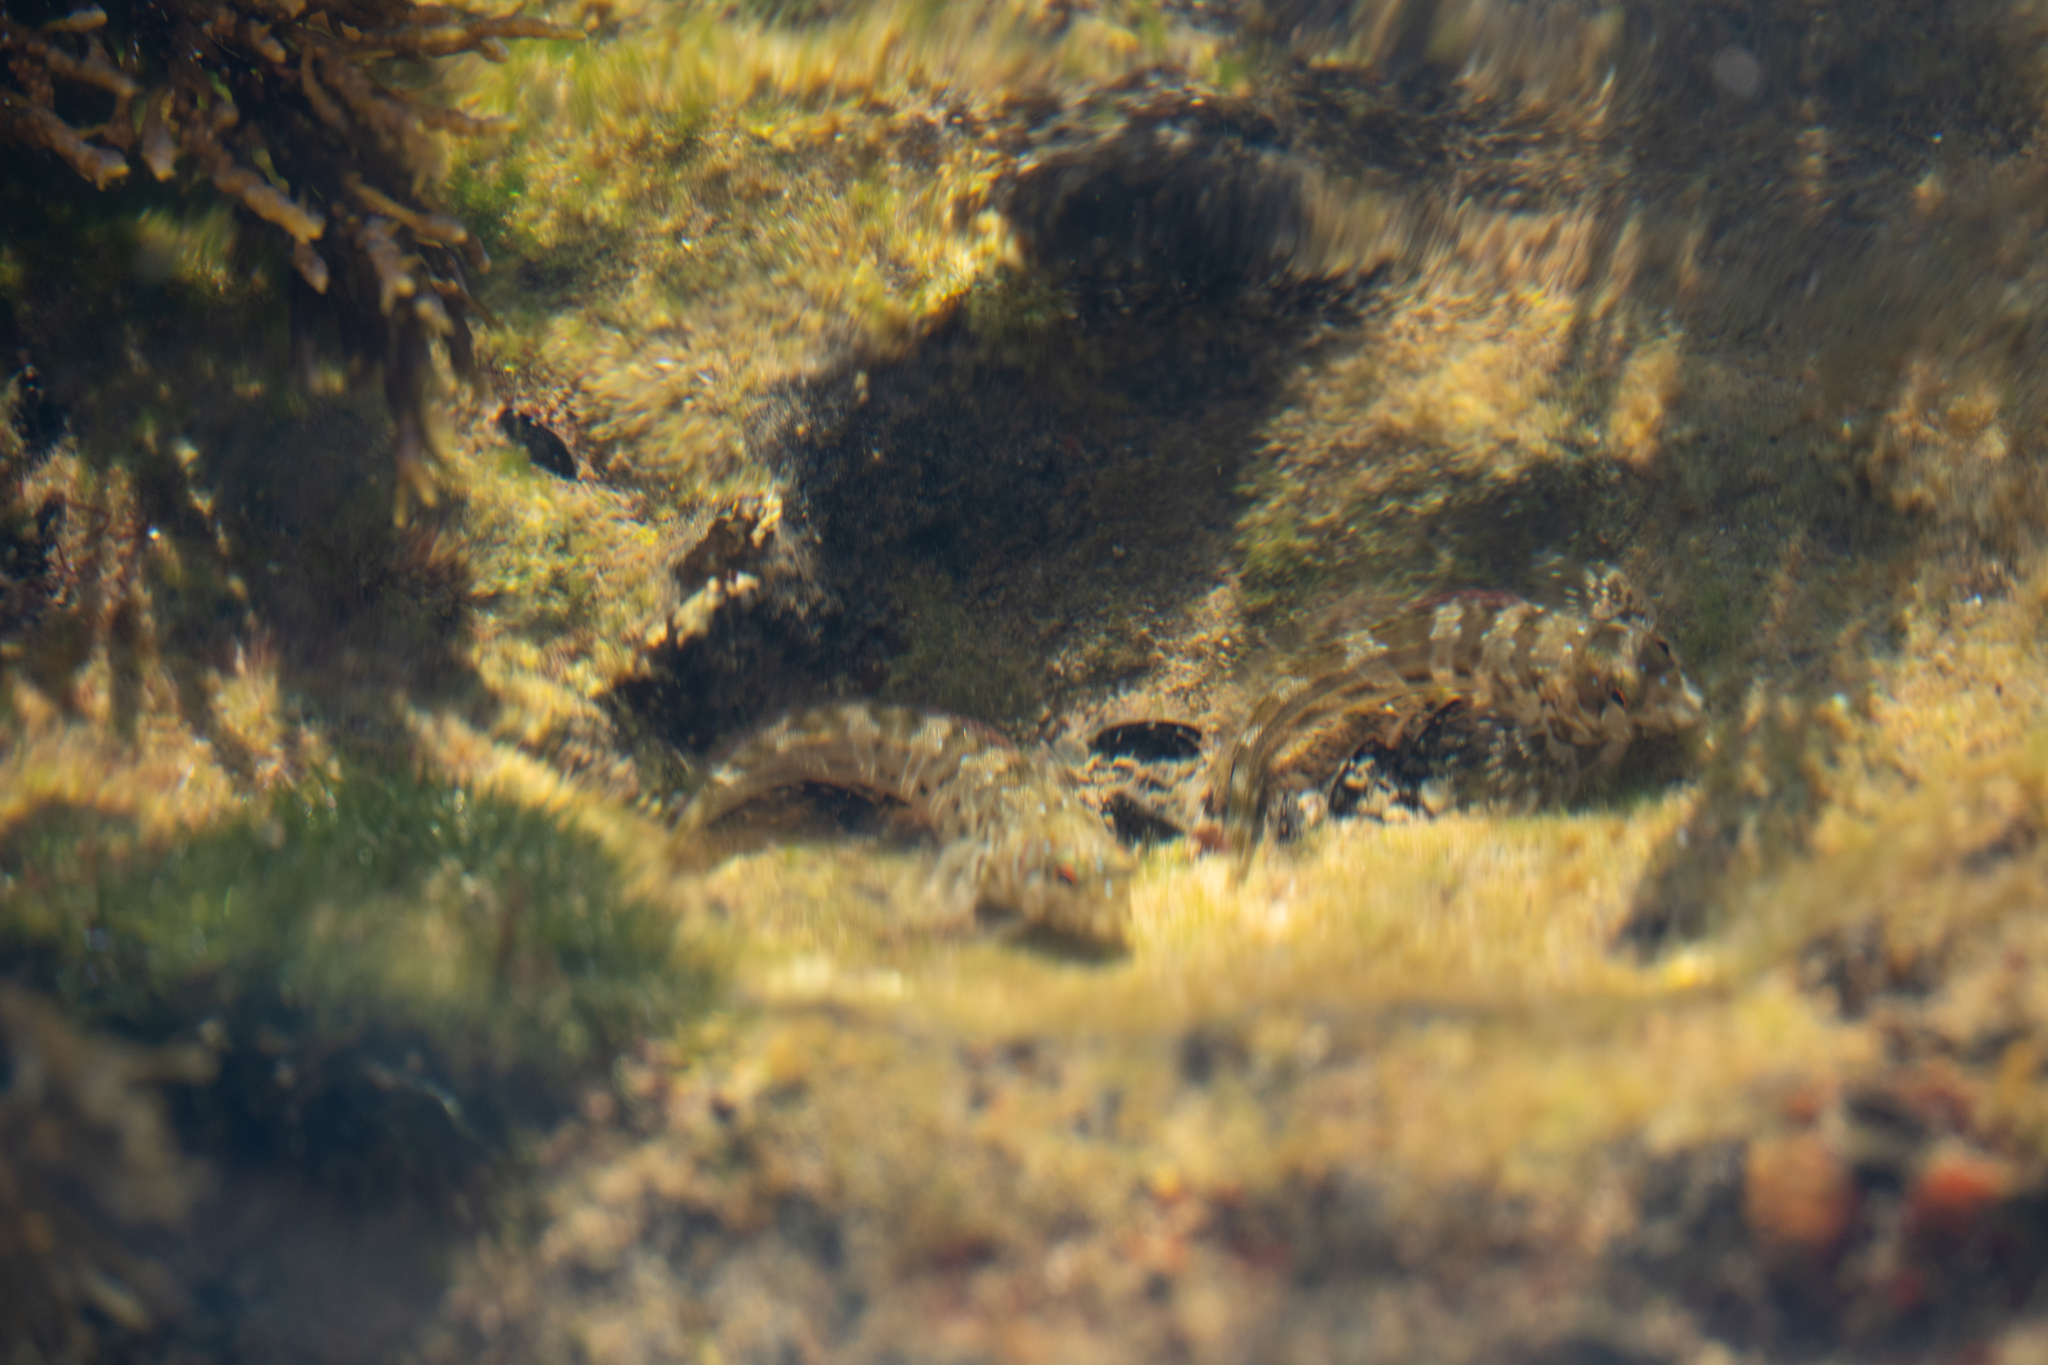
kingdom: Animalia
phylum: Chordata
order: Perciformes
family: Blenniidae
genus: Aidablennius
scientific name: Aidablennius sphynx
